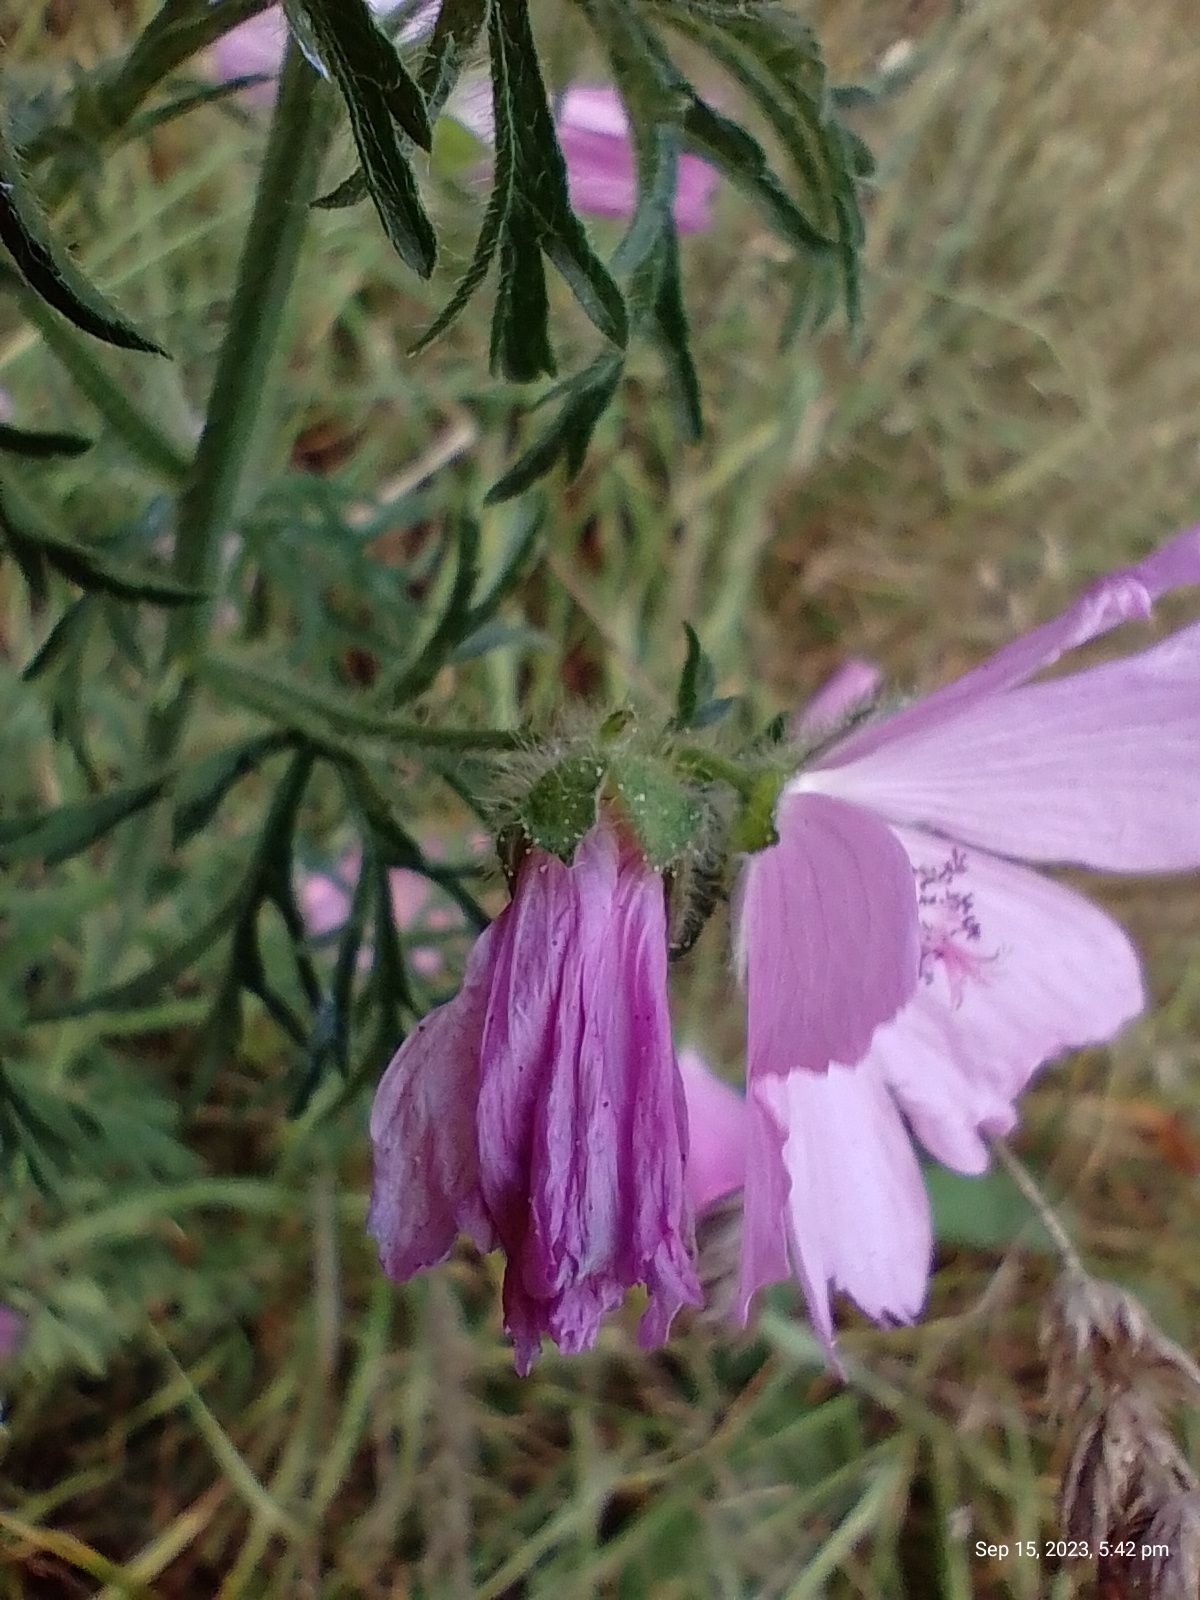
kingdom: Plantae
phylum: Tracheophyta
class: Magnoliopsida
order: Malvales
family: Malvaceae
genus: Malva
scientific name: Malva moschata
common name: Musk mallow
